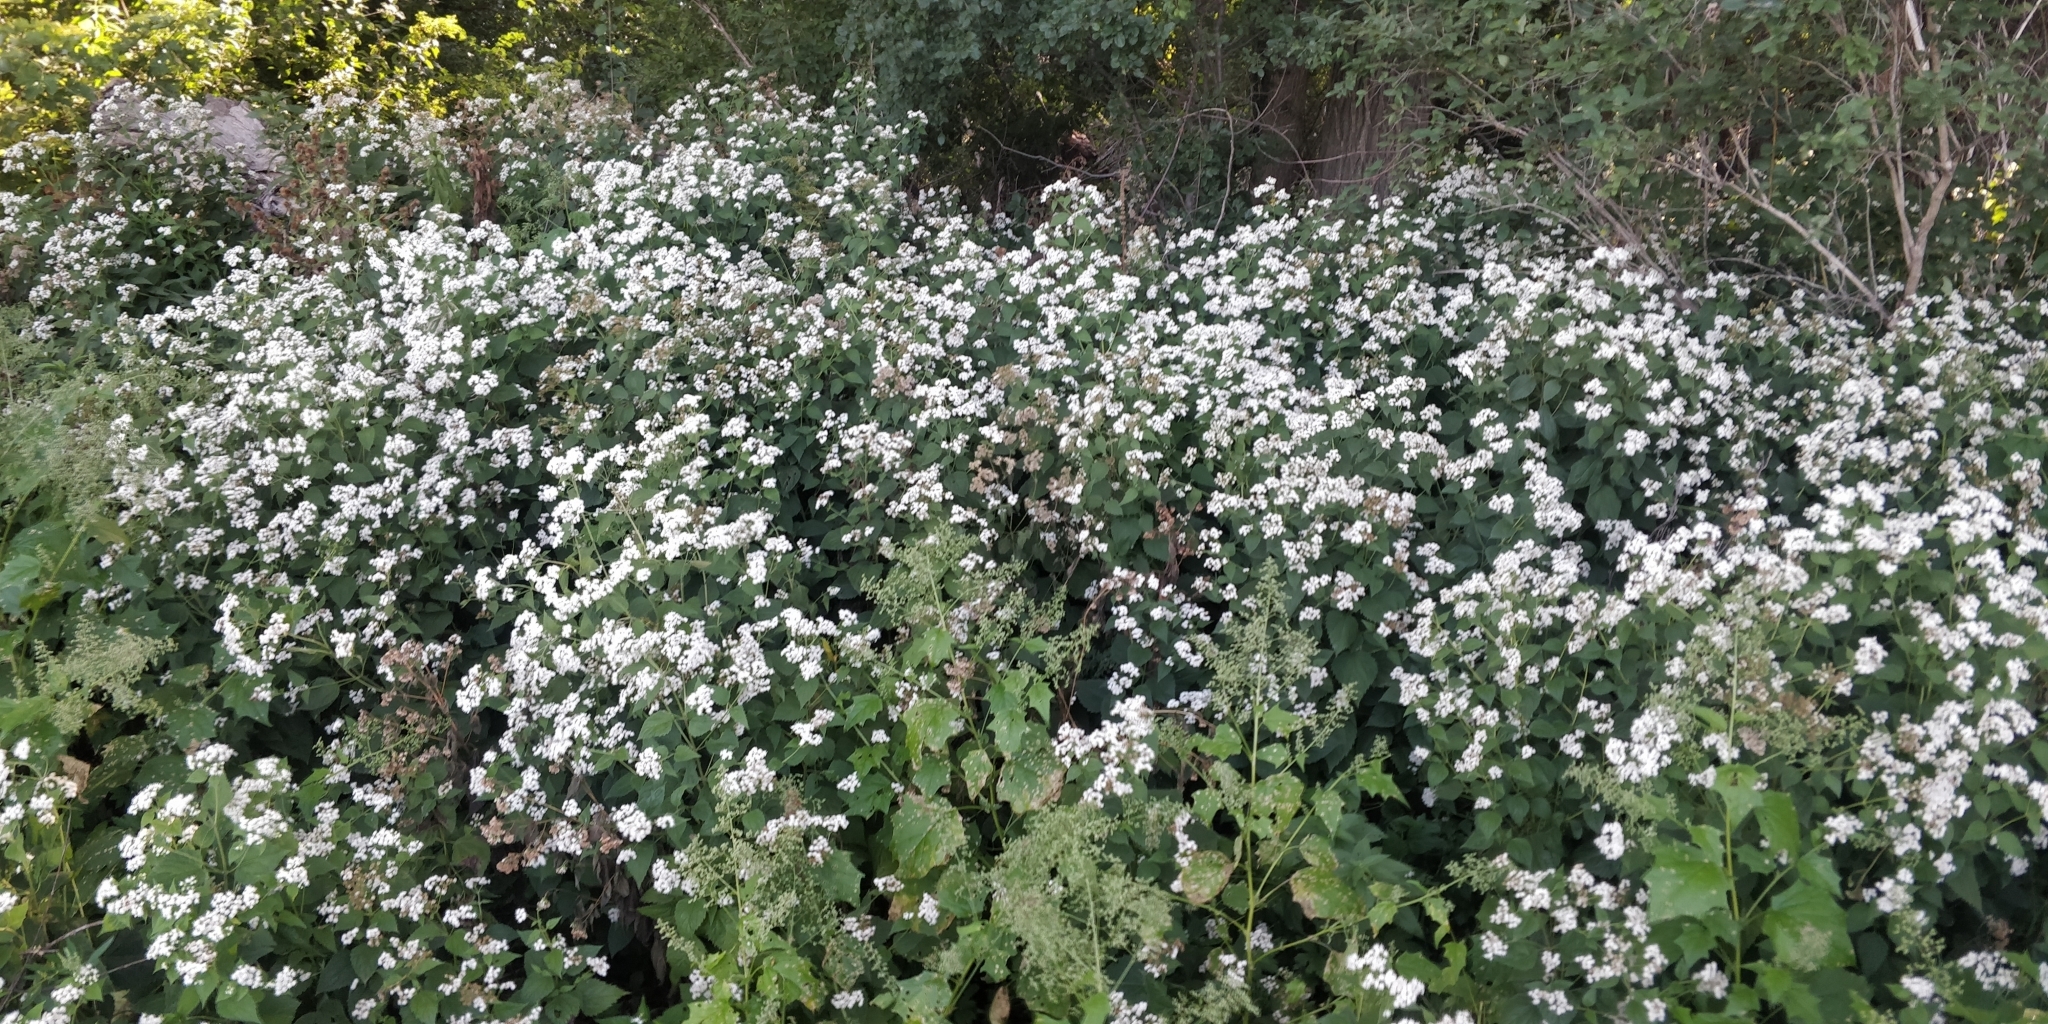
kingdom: Plantae
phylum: Tracheophyta
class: Magnoliopsida
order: Asterales
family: Asteraceae
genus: Ageratina
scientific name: Ageratina altissima
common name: White snakeroot
